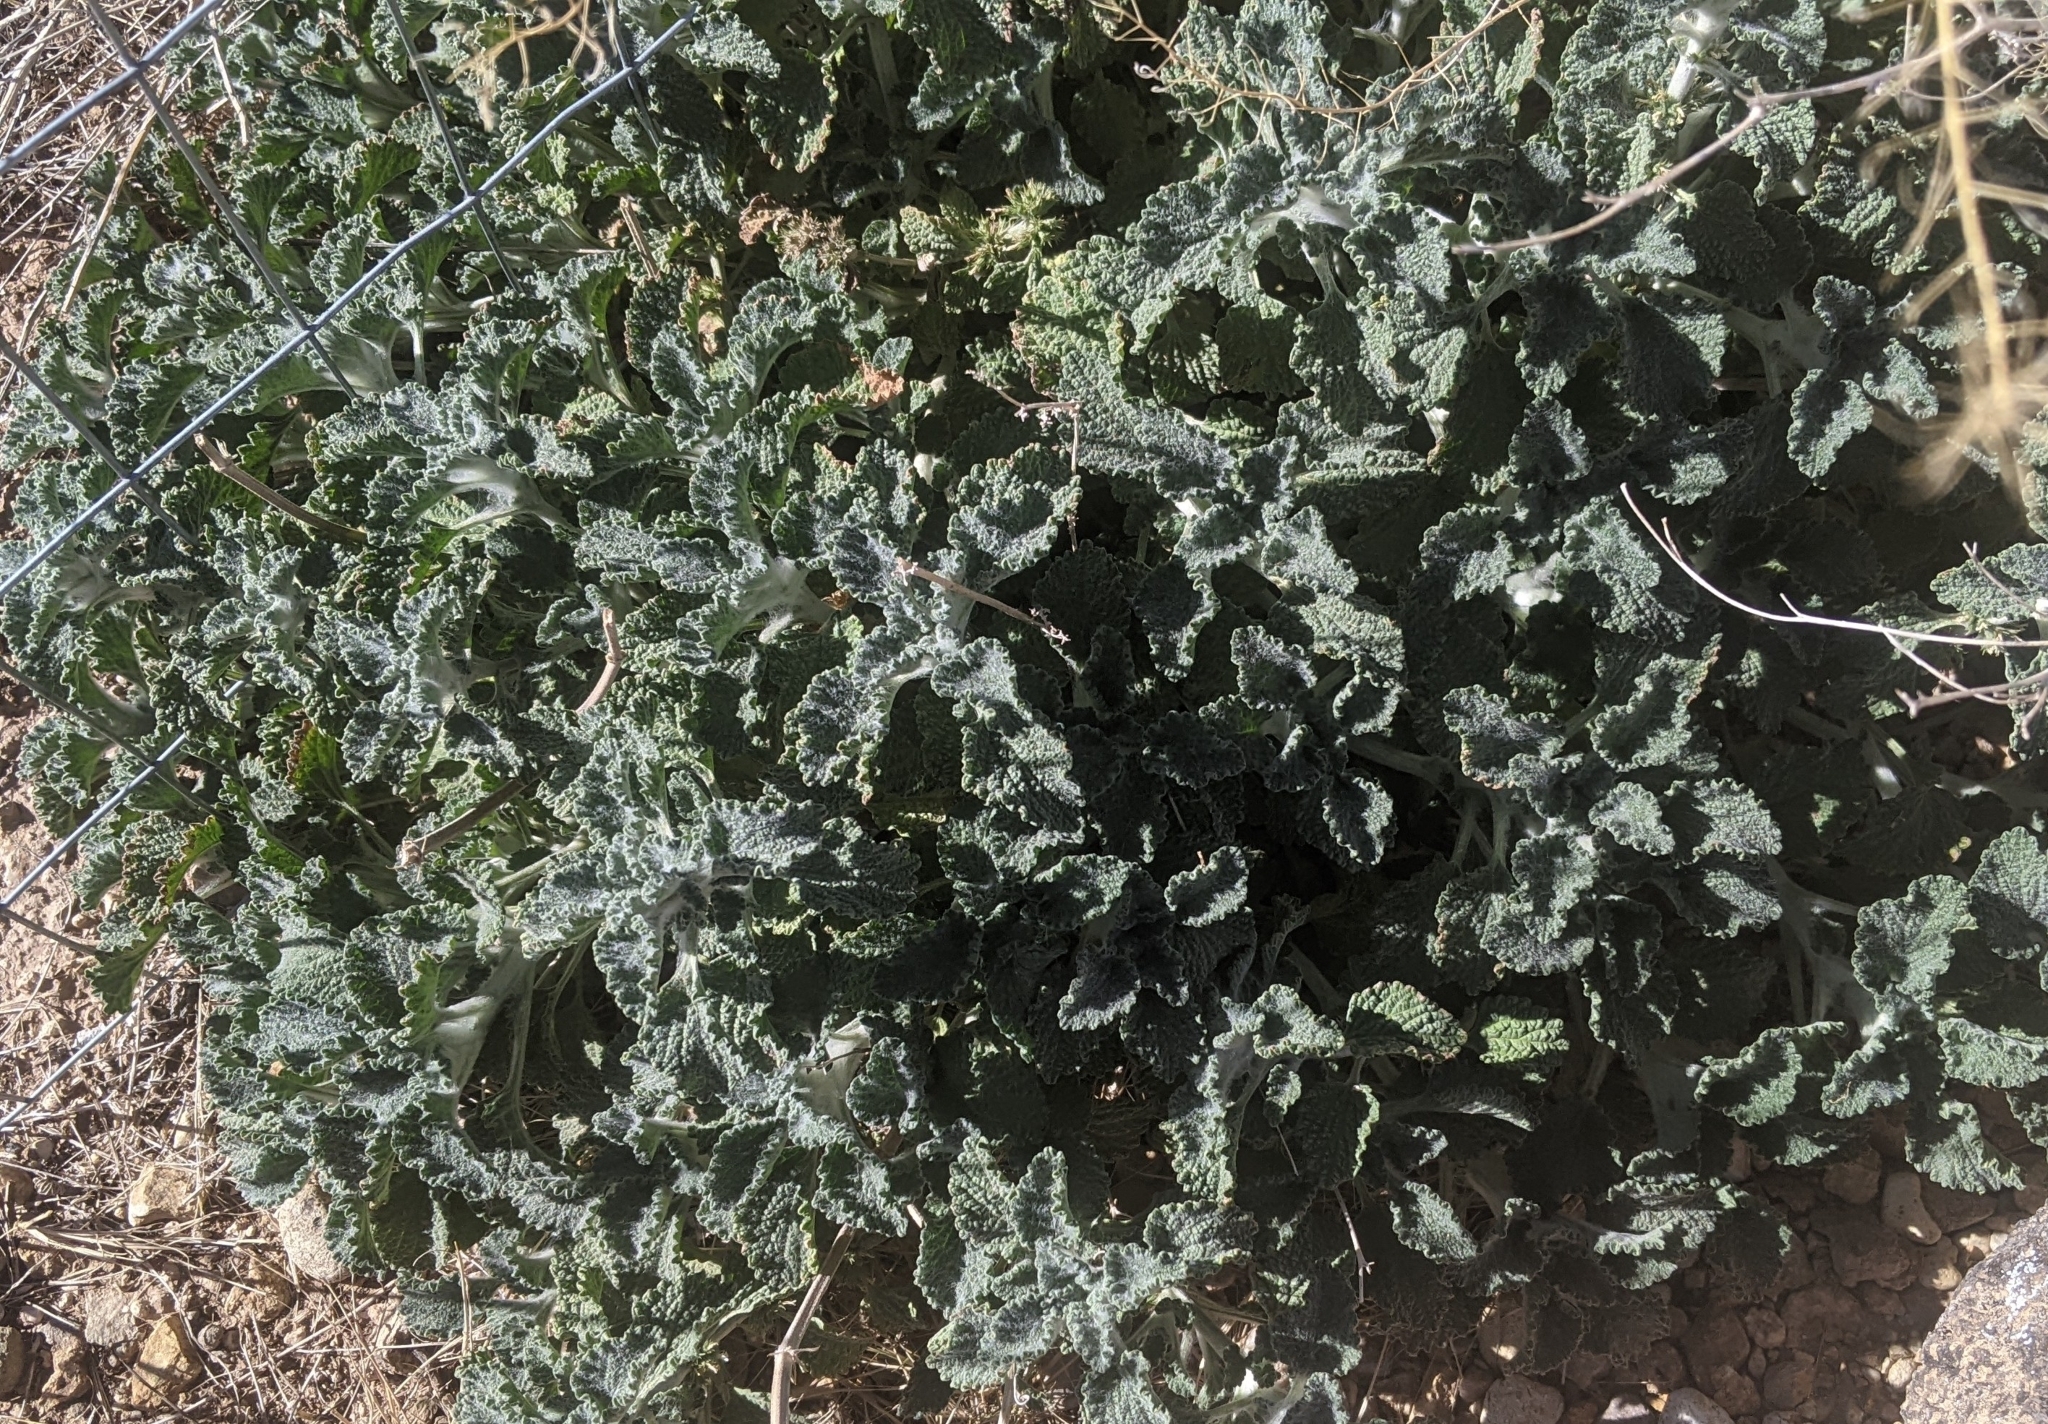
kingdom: Plantae
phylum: Tracheophyta
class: Magnoliopsida
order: Lamiales
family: Lamiaceae
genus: Marrubium
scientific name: Marrubium vulgare
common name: Horehound
